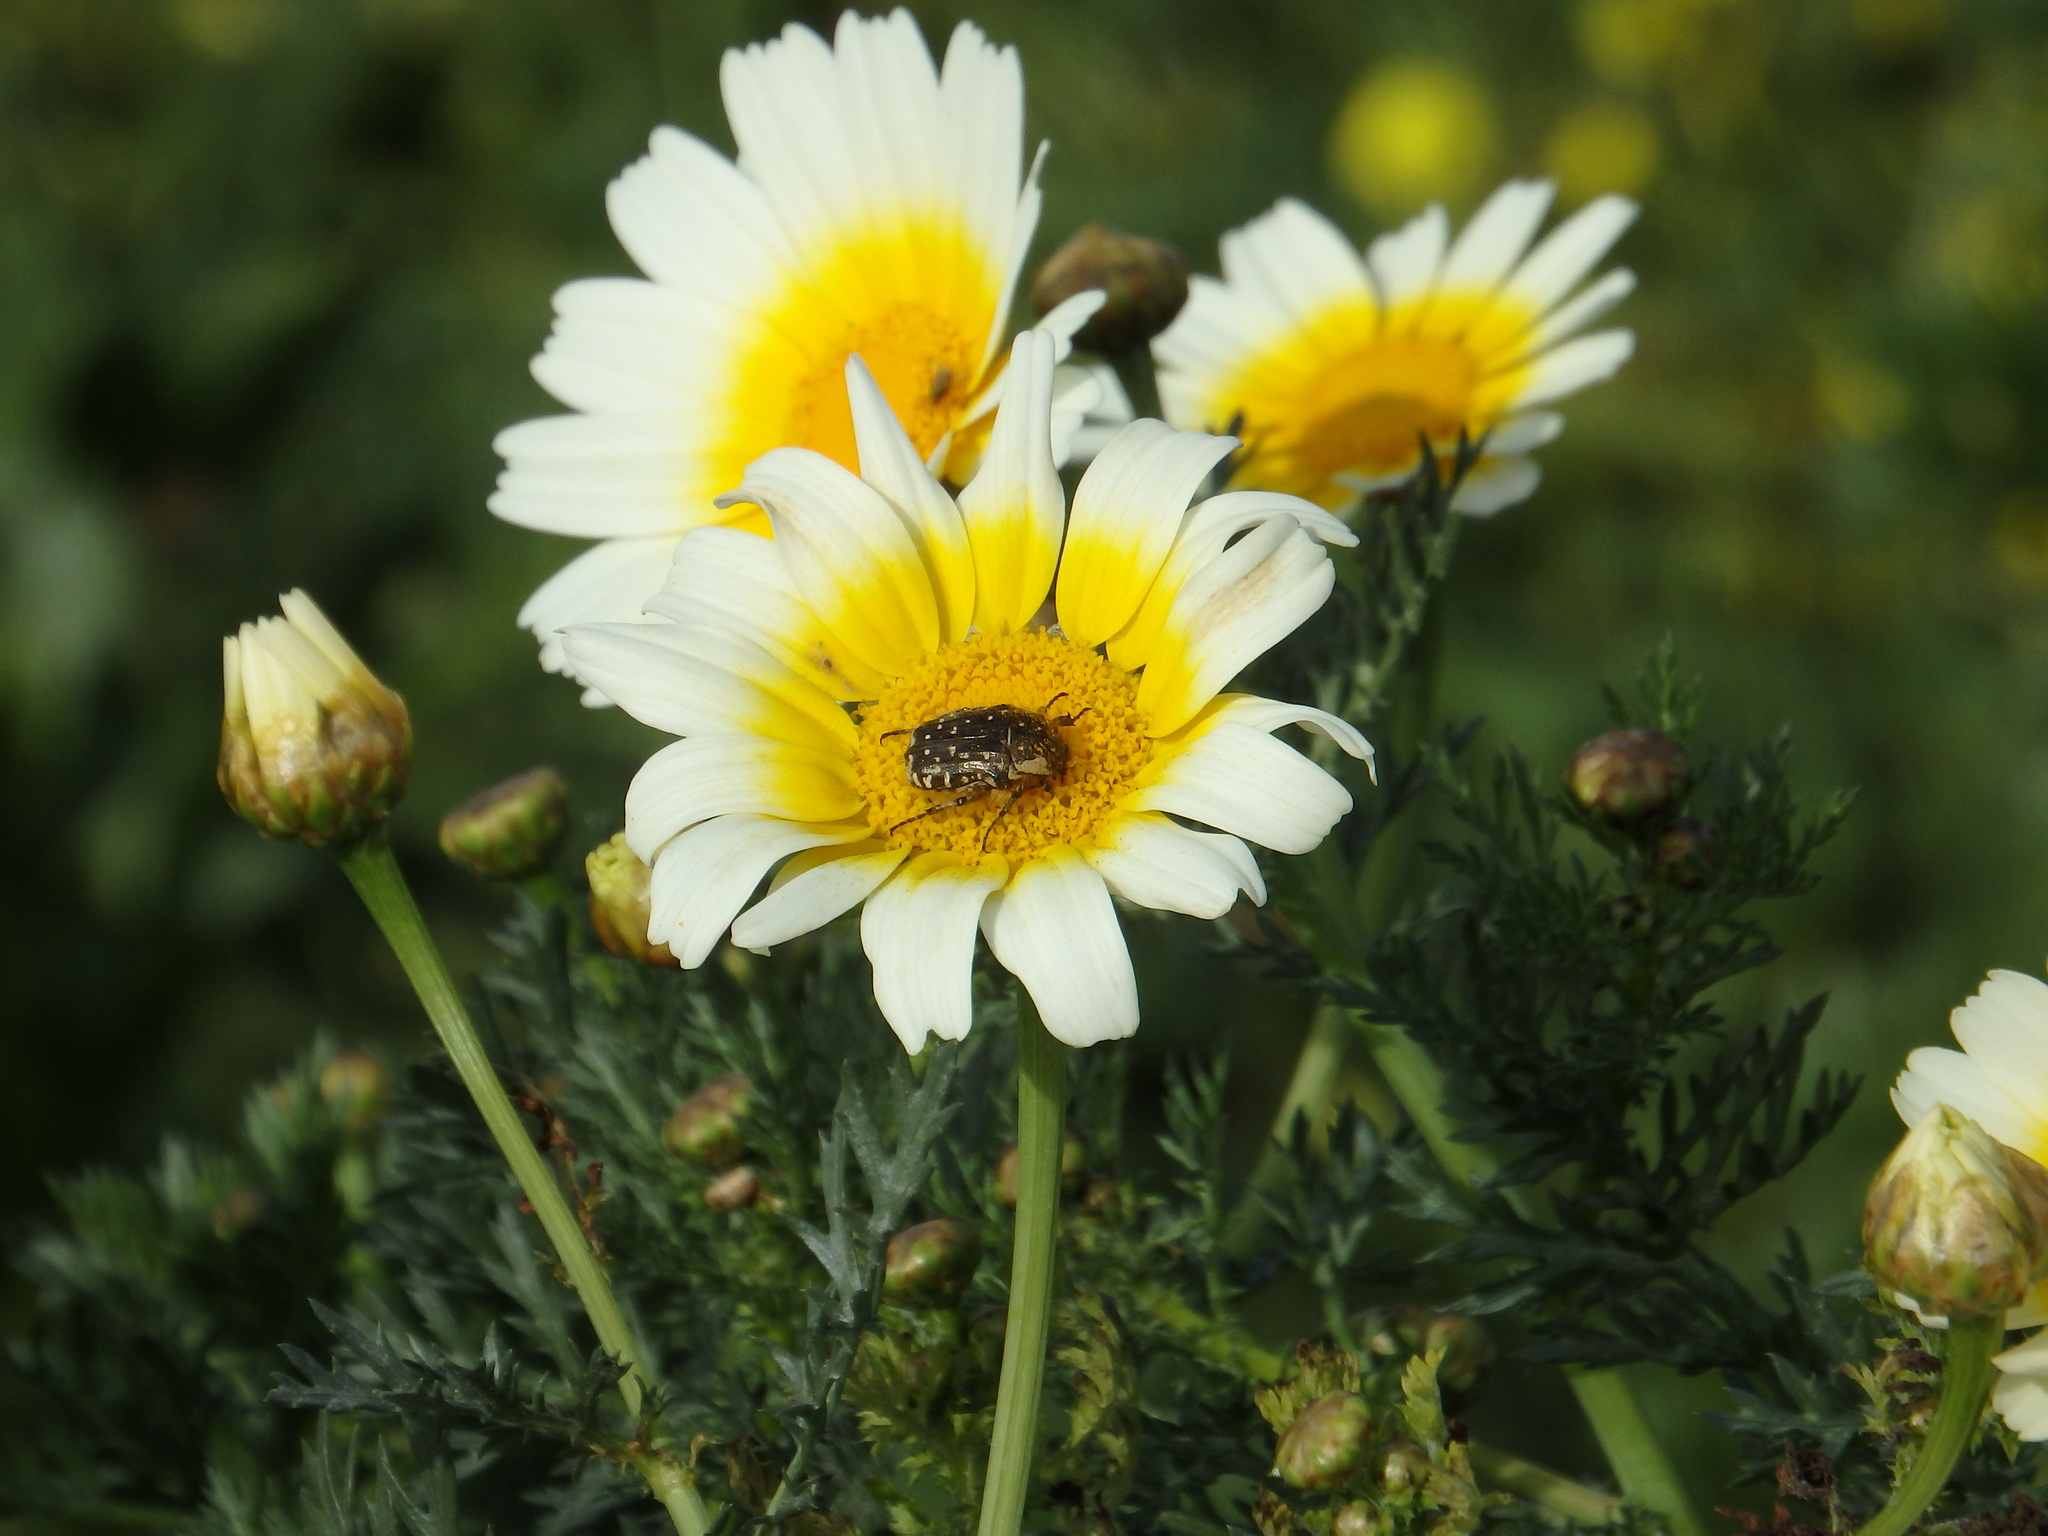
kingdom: Animalia
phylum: Arthropoda
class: Insecta
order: Coleoptera
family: Scarabaeidae
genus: Oxythyrea
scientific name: Oxythyrea funesta
